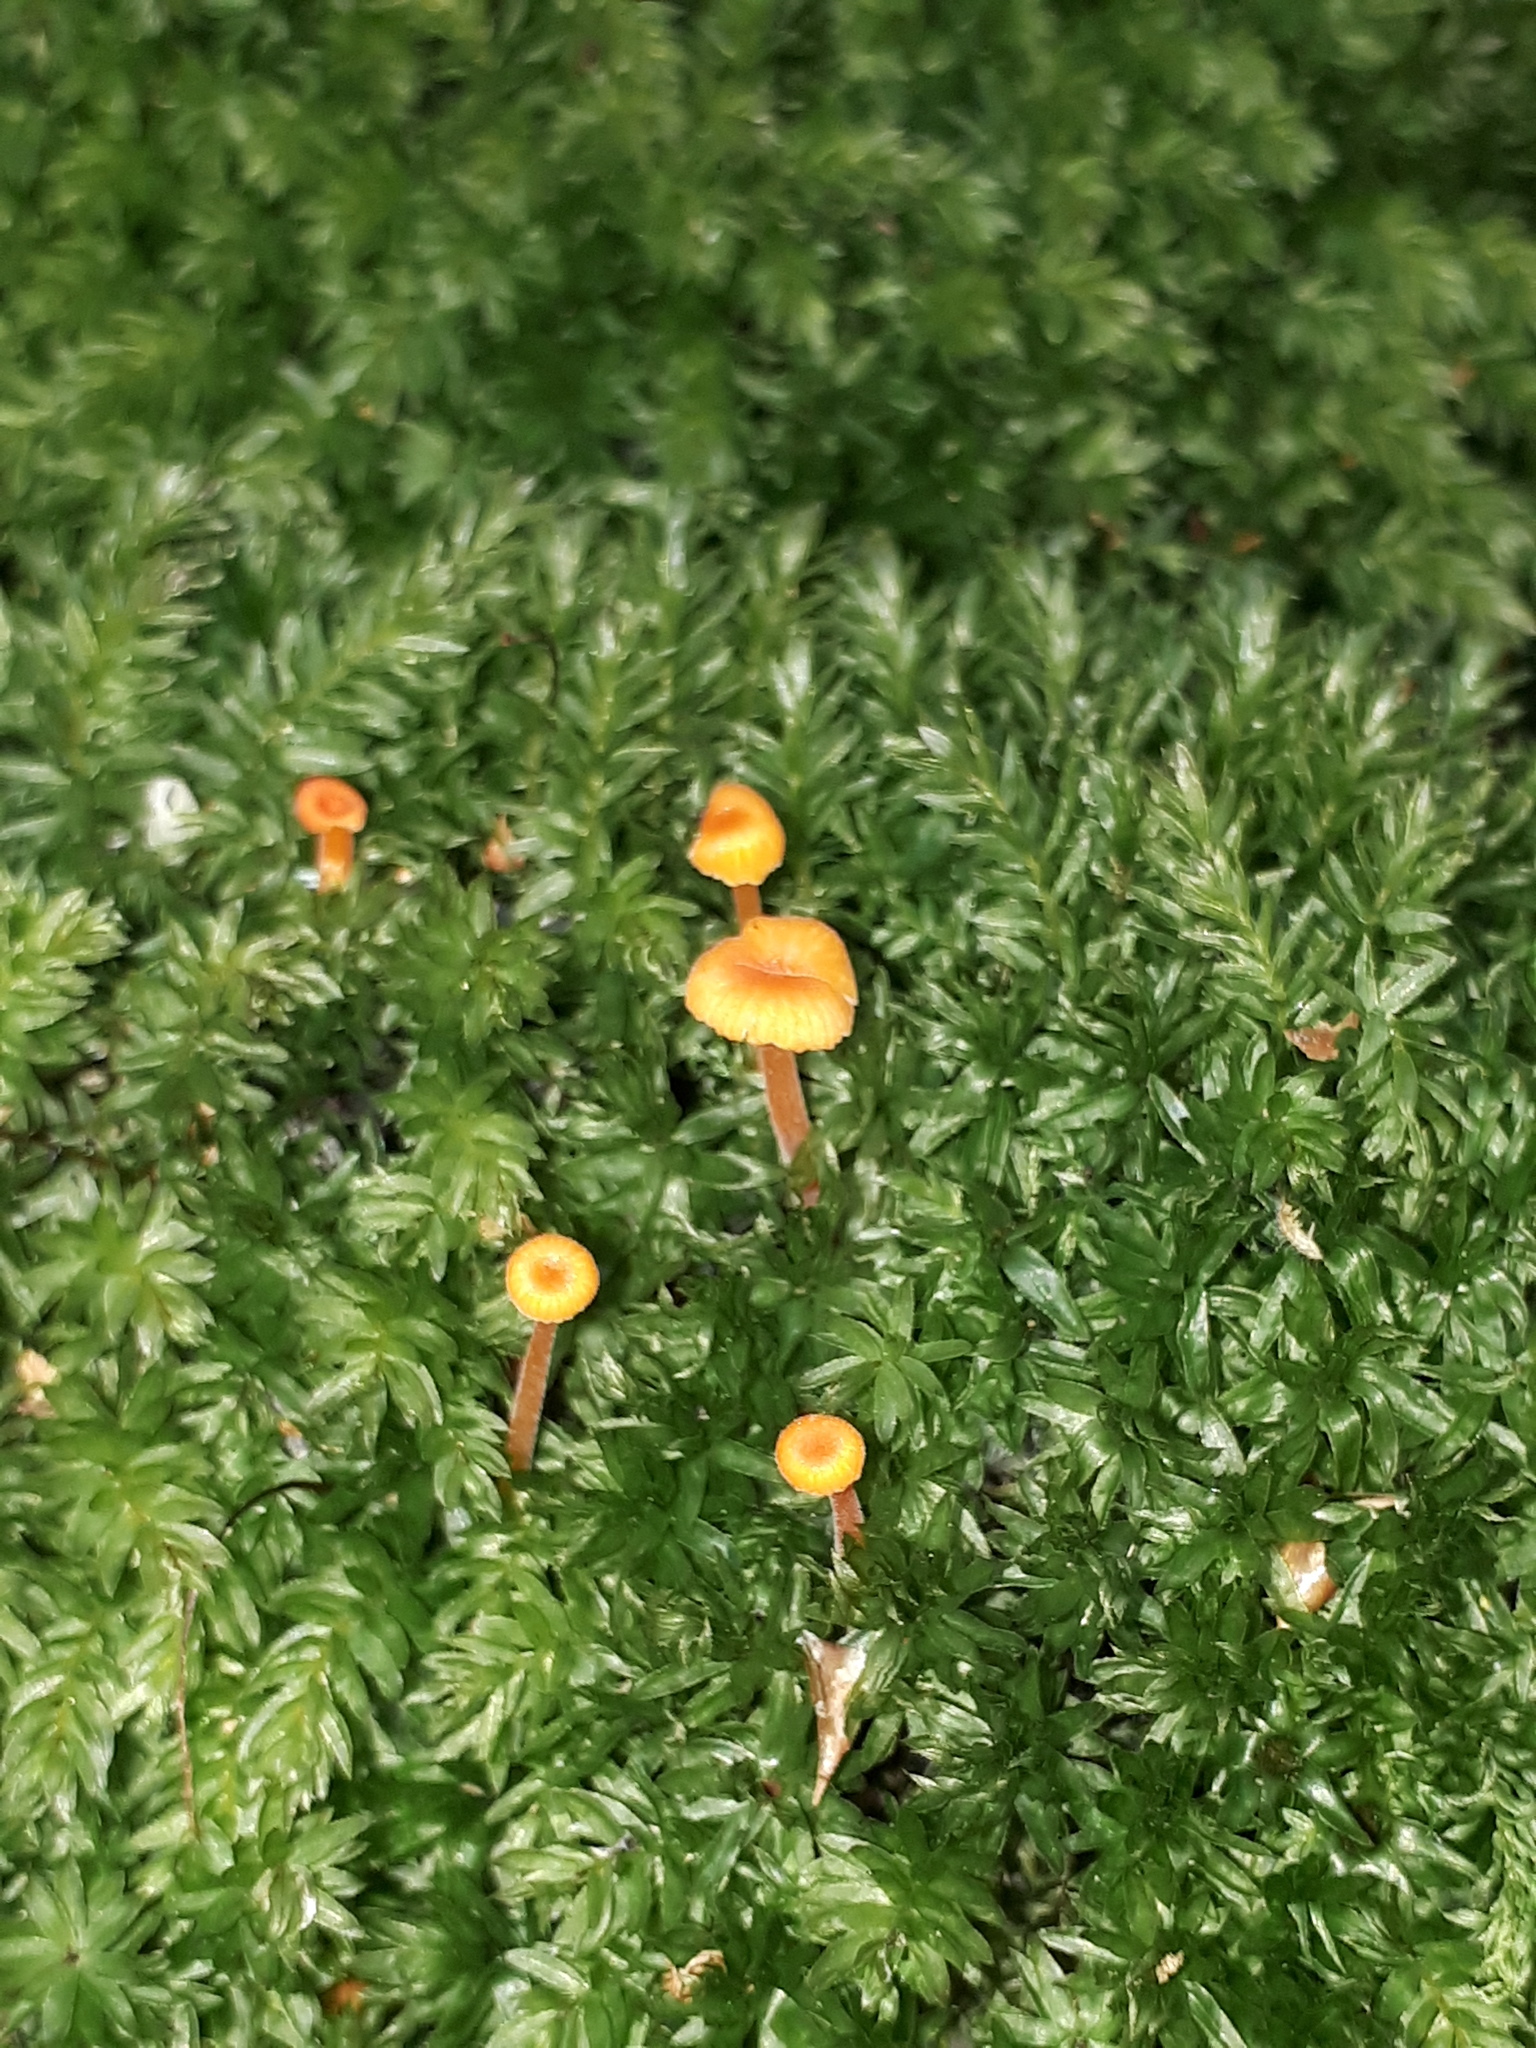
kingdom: Fungi
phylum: Basidiomycota
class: Agaricomycetes
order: Hymenochaetales
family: Rickenellaceae
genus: Rickenella
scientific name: Rickenella fibula
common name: Orange mosscap
